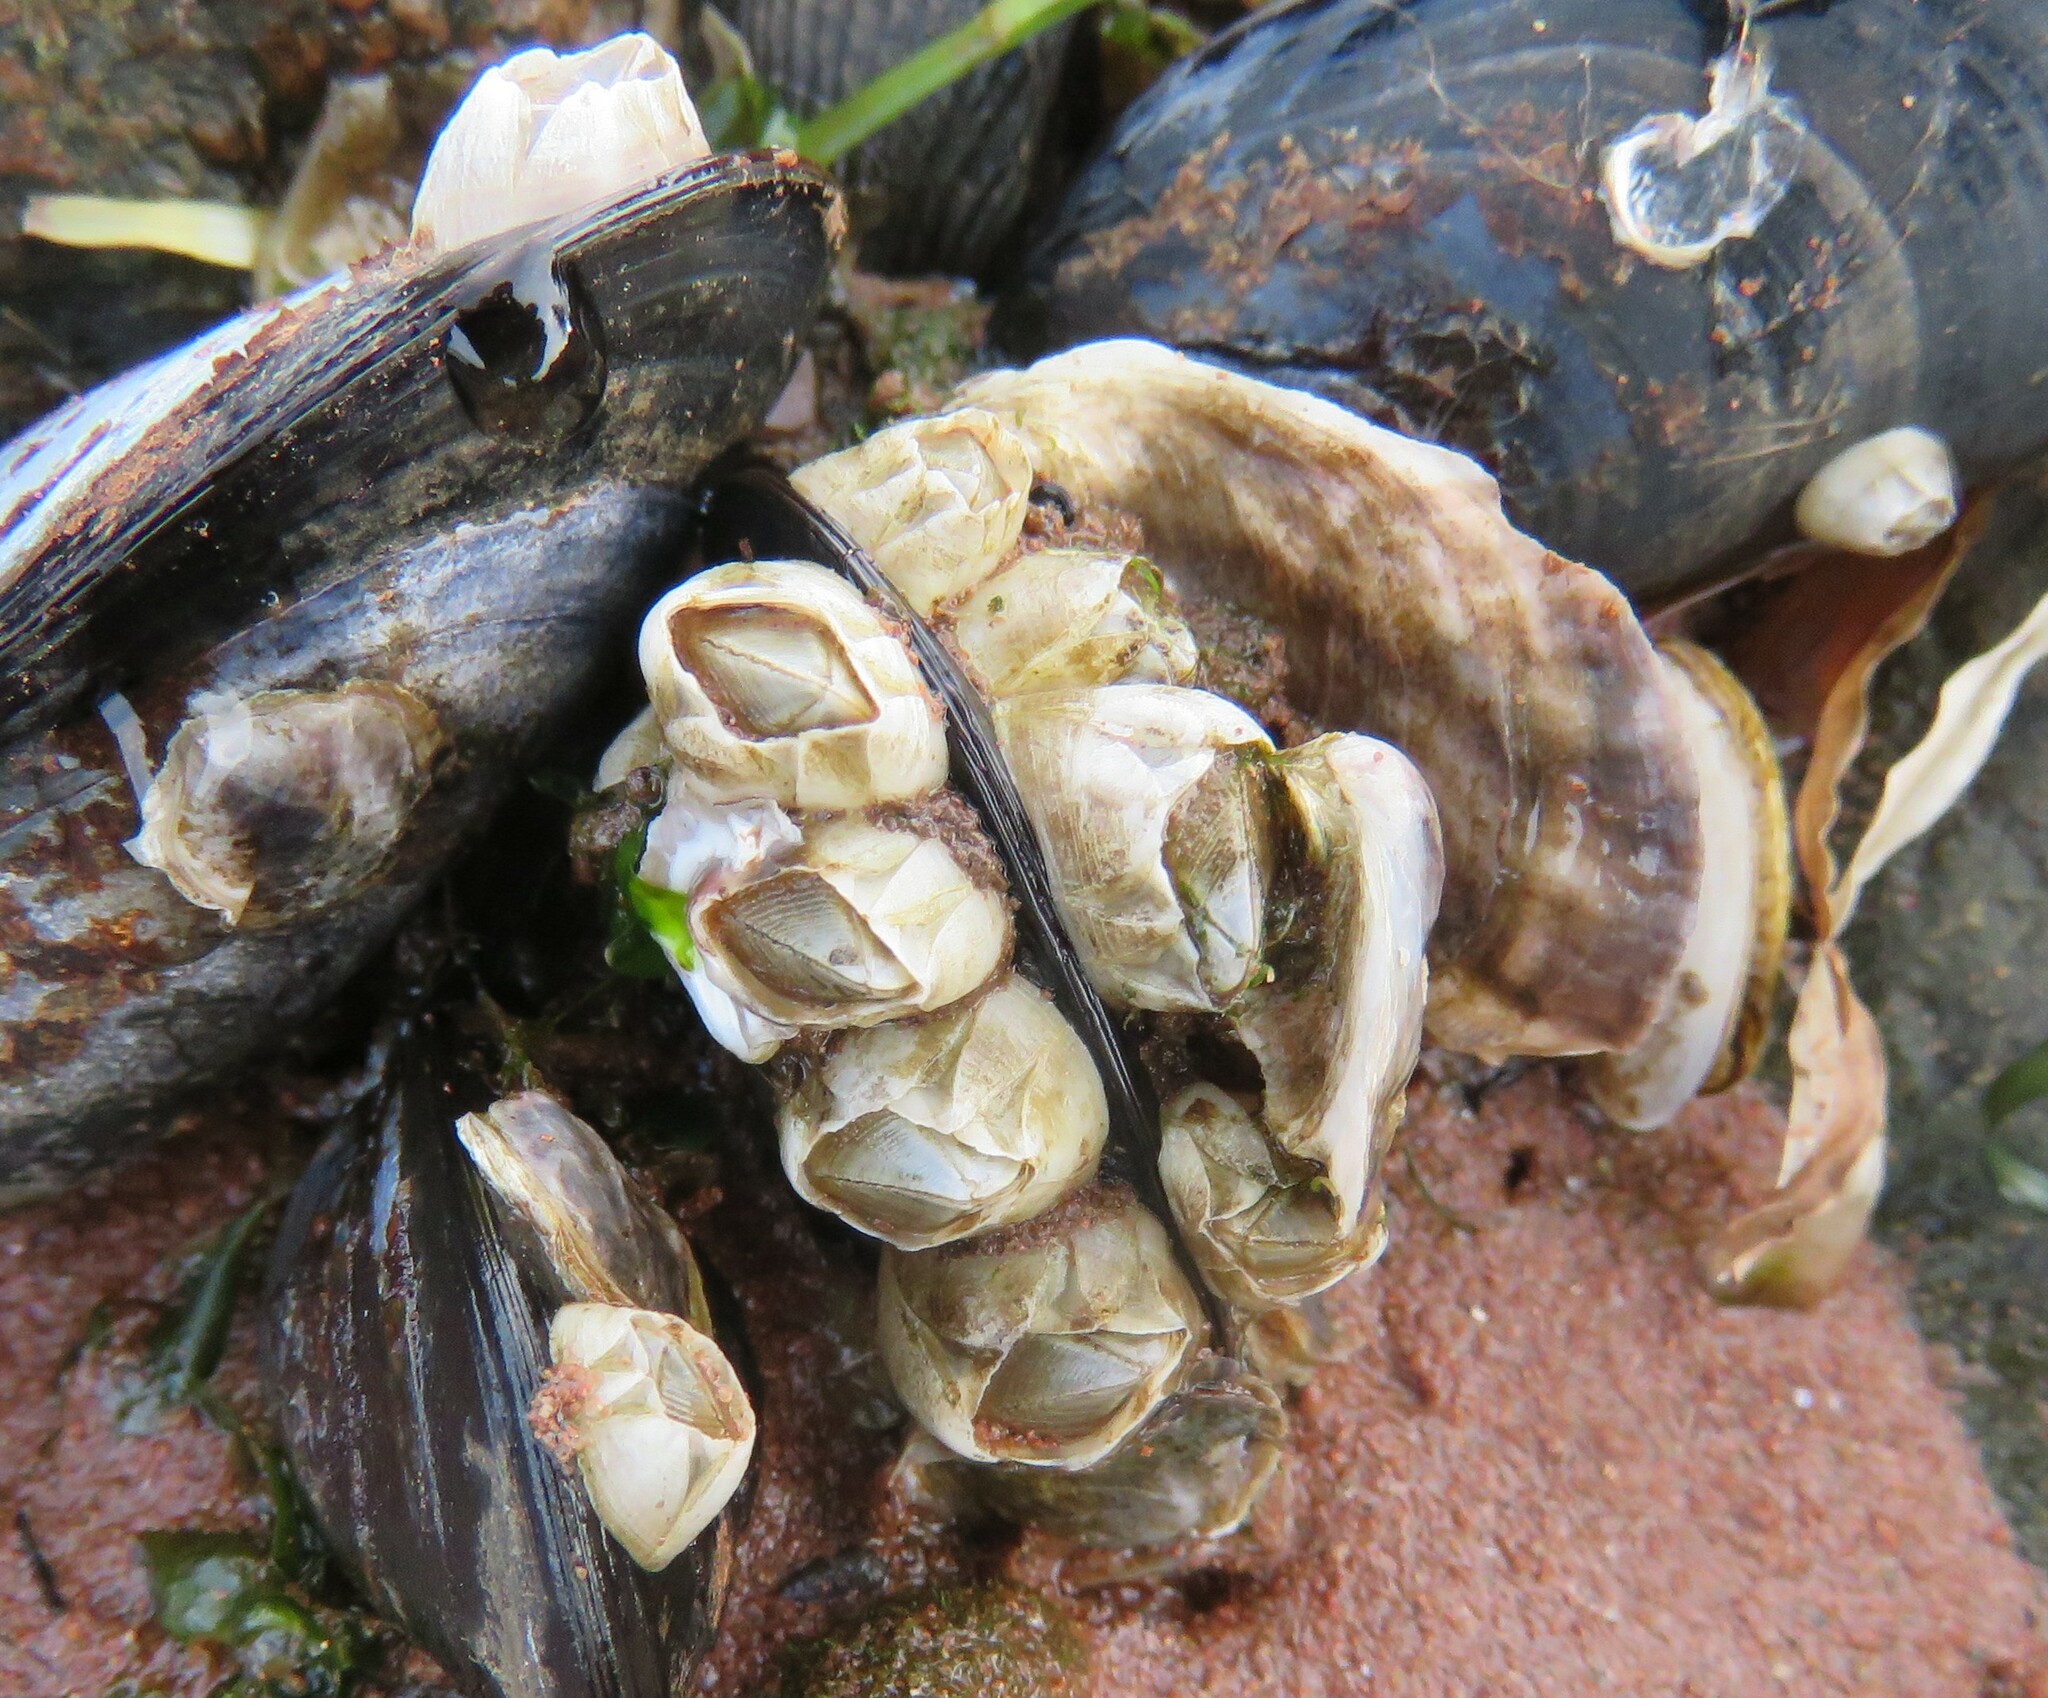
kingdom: Animalia
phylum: Arthropoda
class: Maxillopoda
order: Sessilia
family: Balanidae
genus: Amphibalanus
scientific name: Amphibalanus improvisus
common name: Bay barnacle
